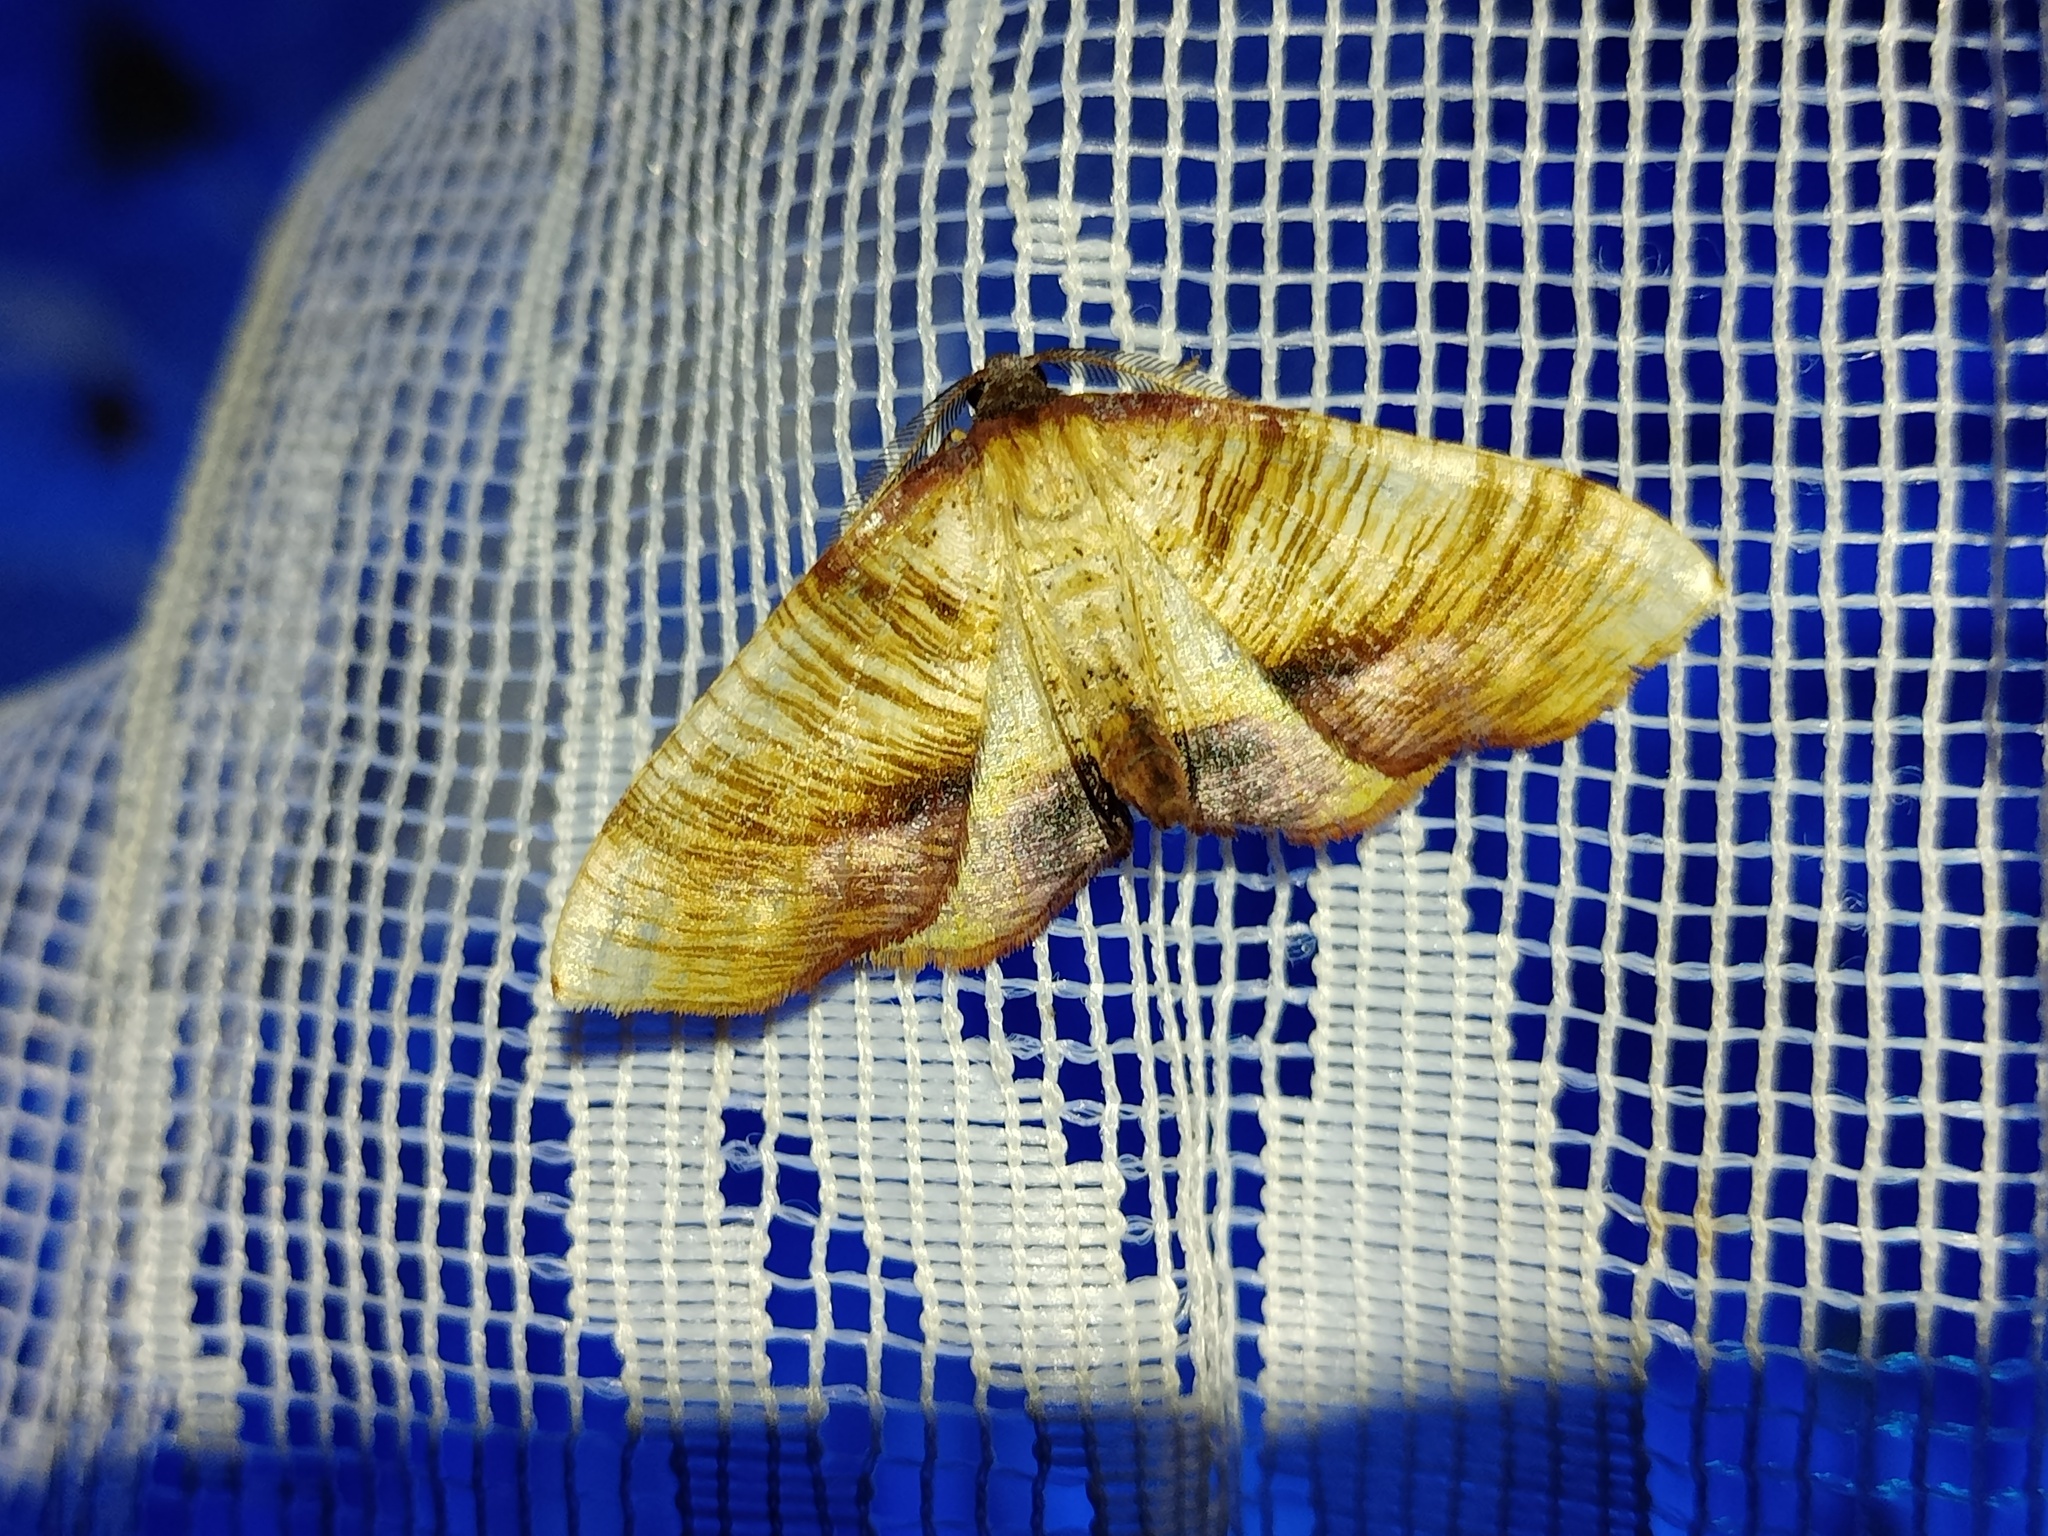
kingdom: Animalia
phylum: Arthropoda
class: Insecta
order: Lepidoptera
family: Geometridae
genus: Plagodis
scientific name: Plagodis dolabraria
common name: Scorched wing
